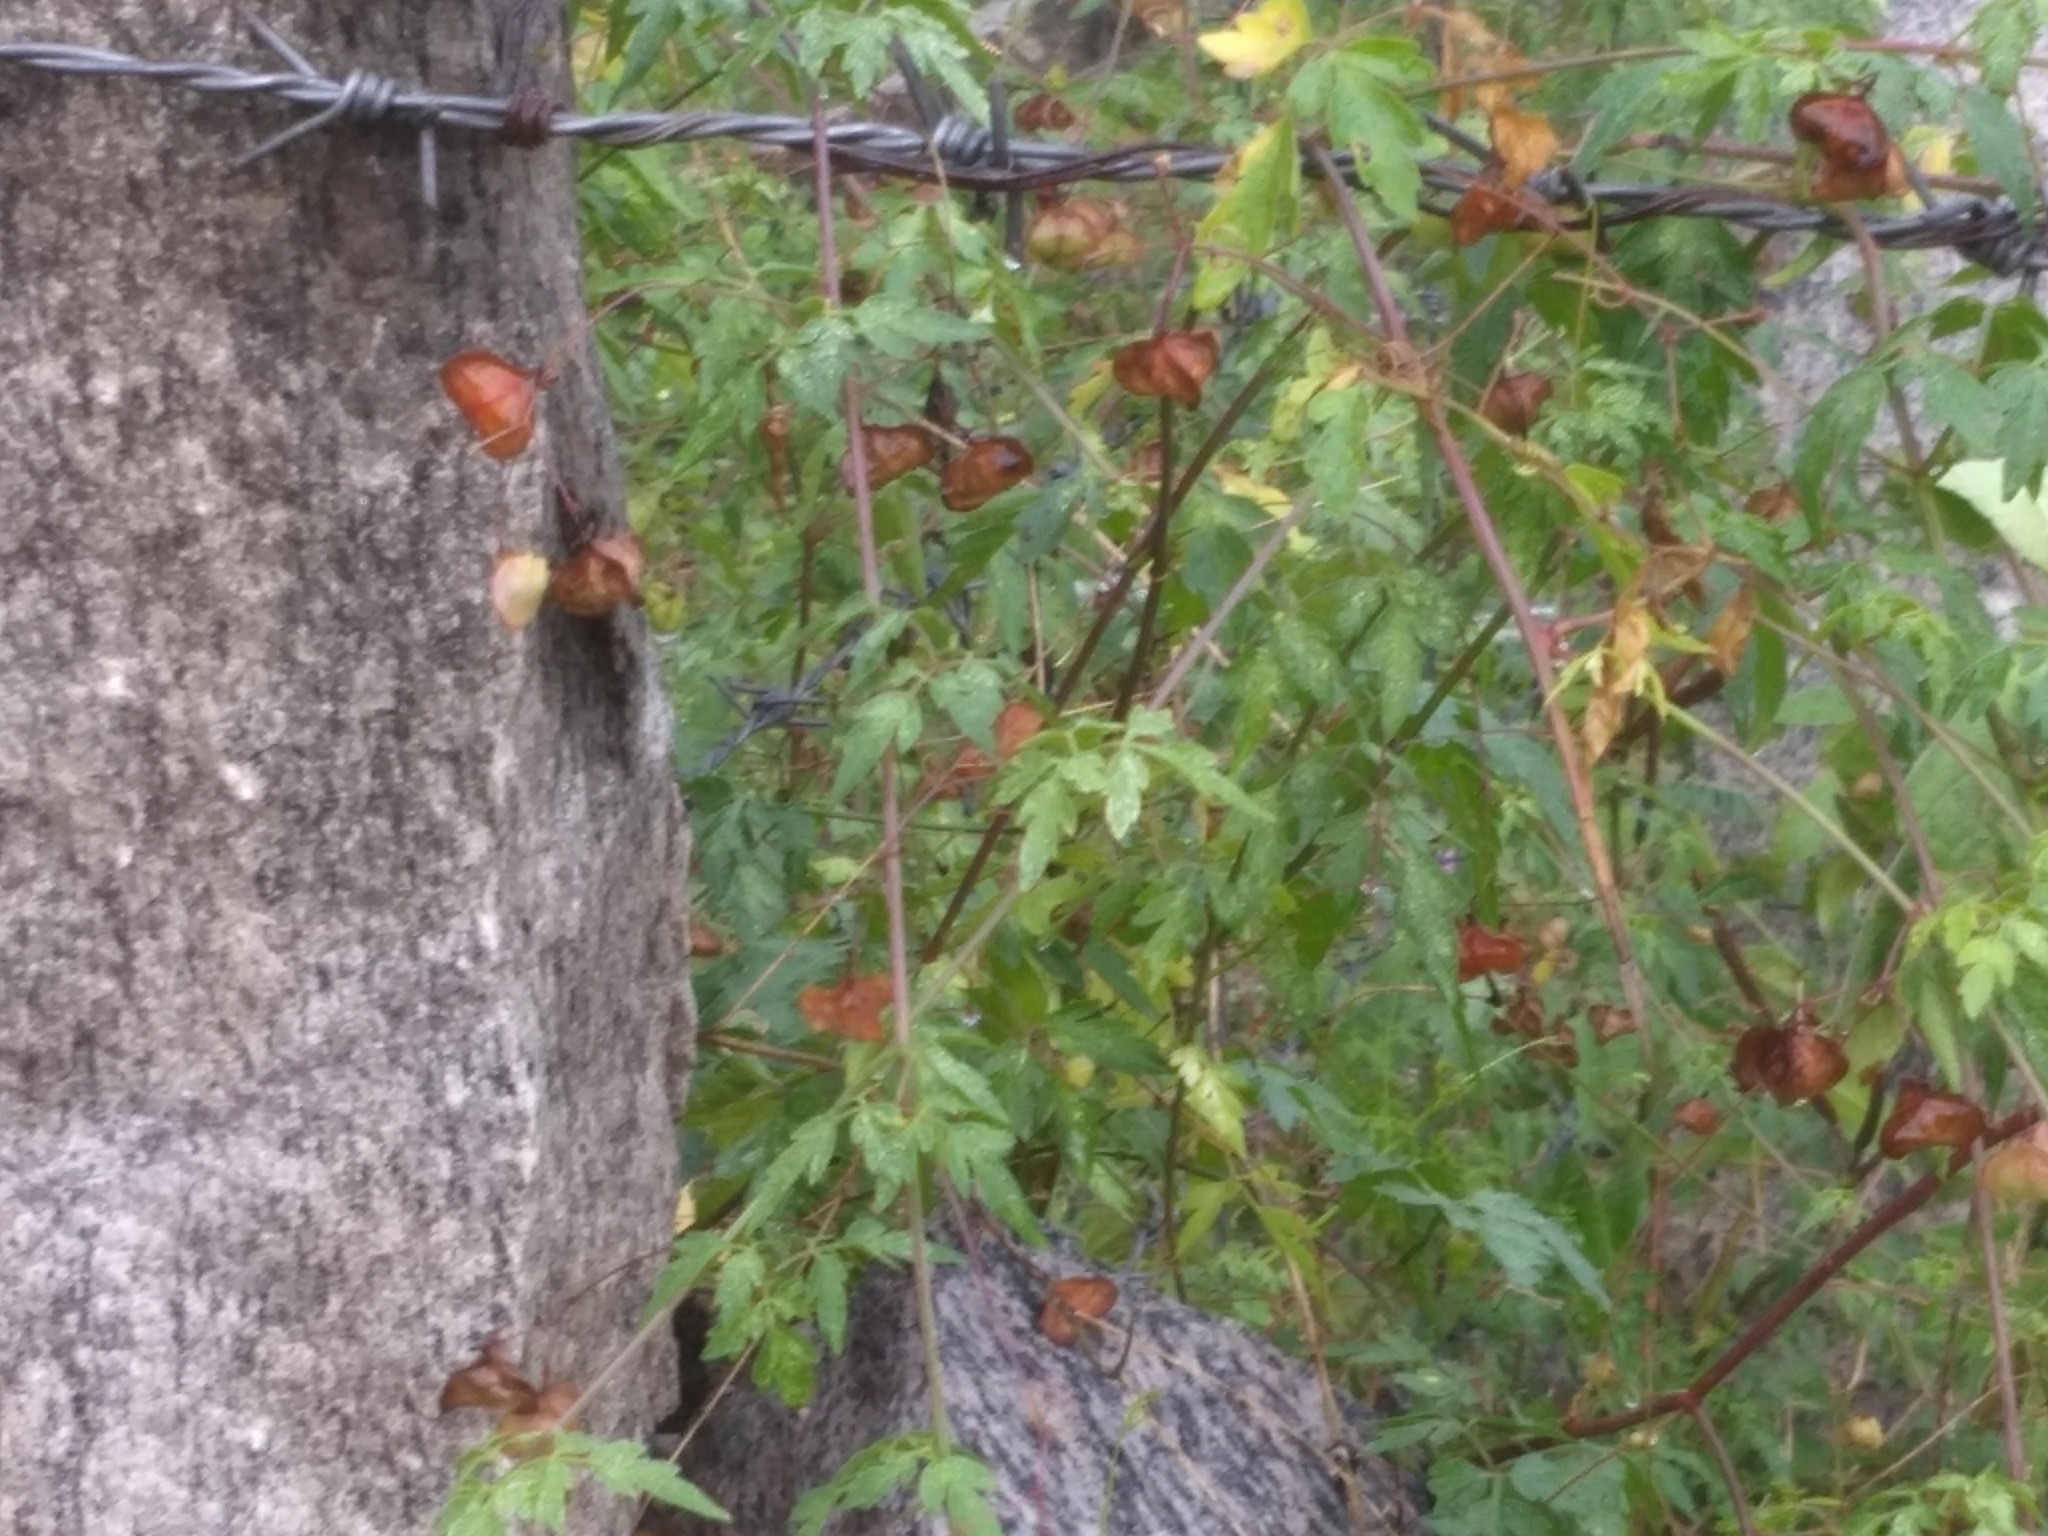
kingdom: Plantae
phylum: Tracheophyta
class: Magnoliopsida
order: Sapindales
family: Sapindaceae
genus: Cardiospermum
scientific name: Cardiospermum halicacabum
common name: Balloon vine
